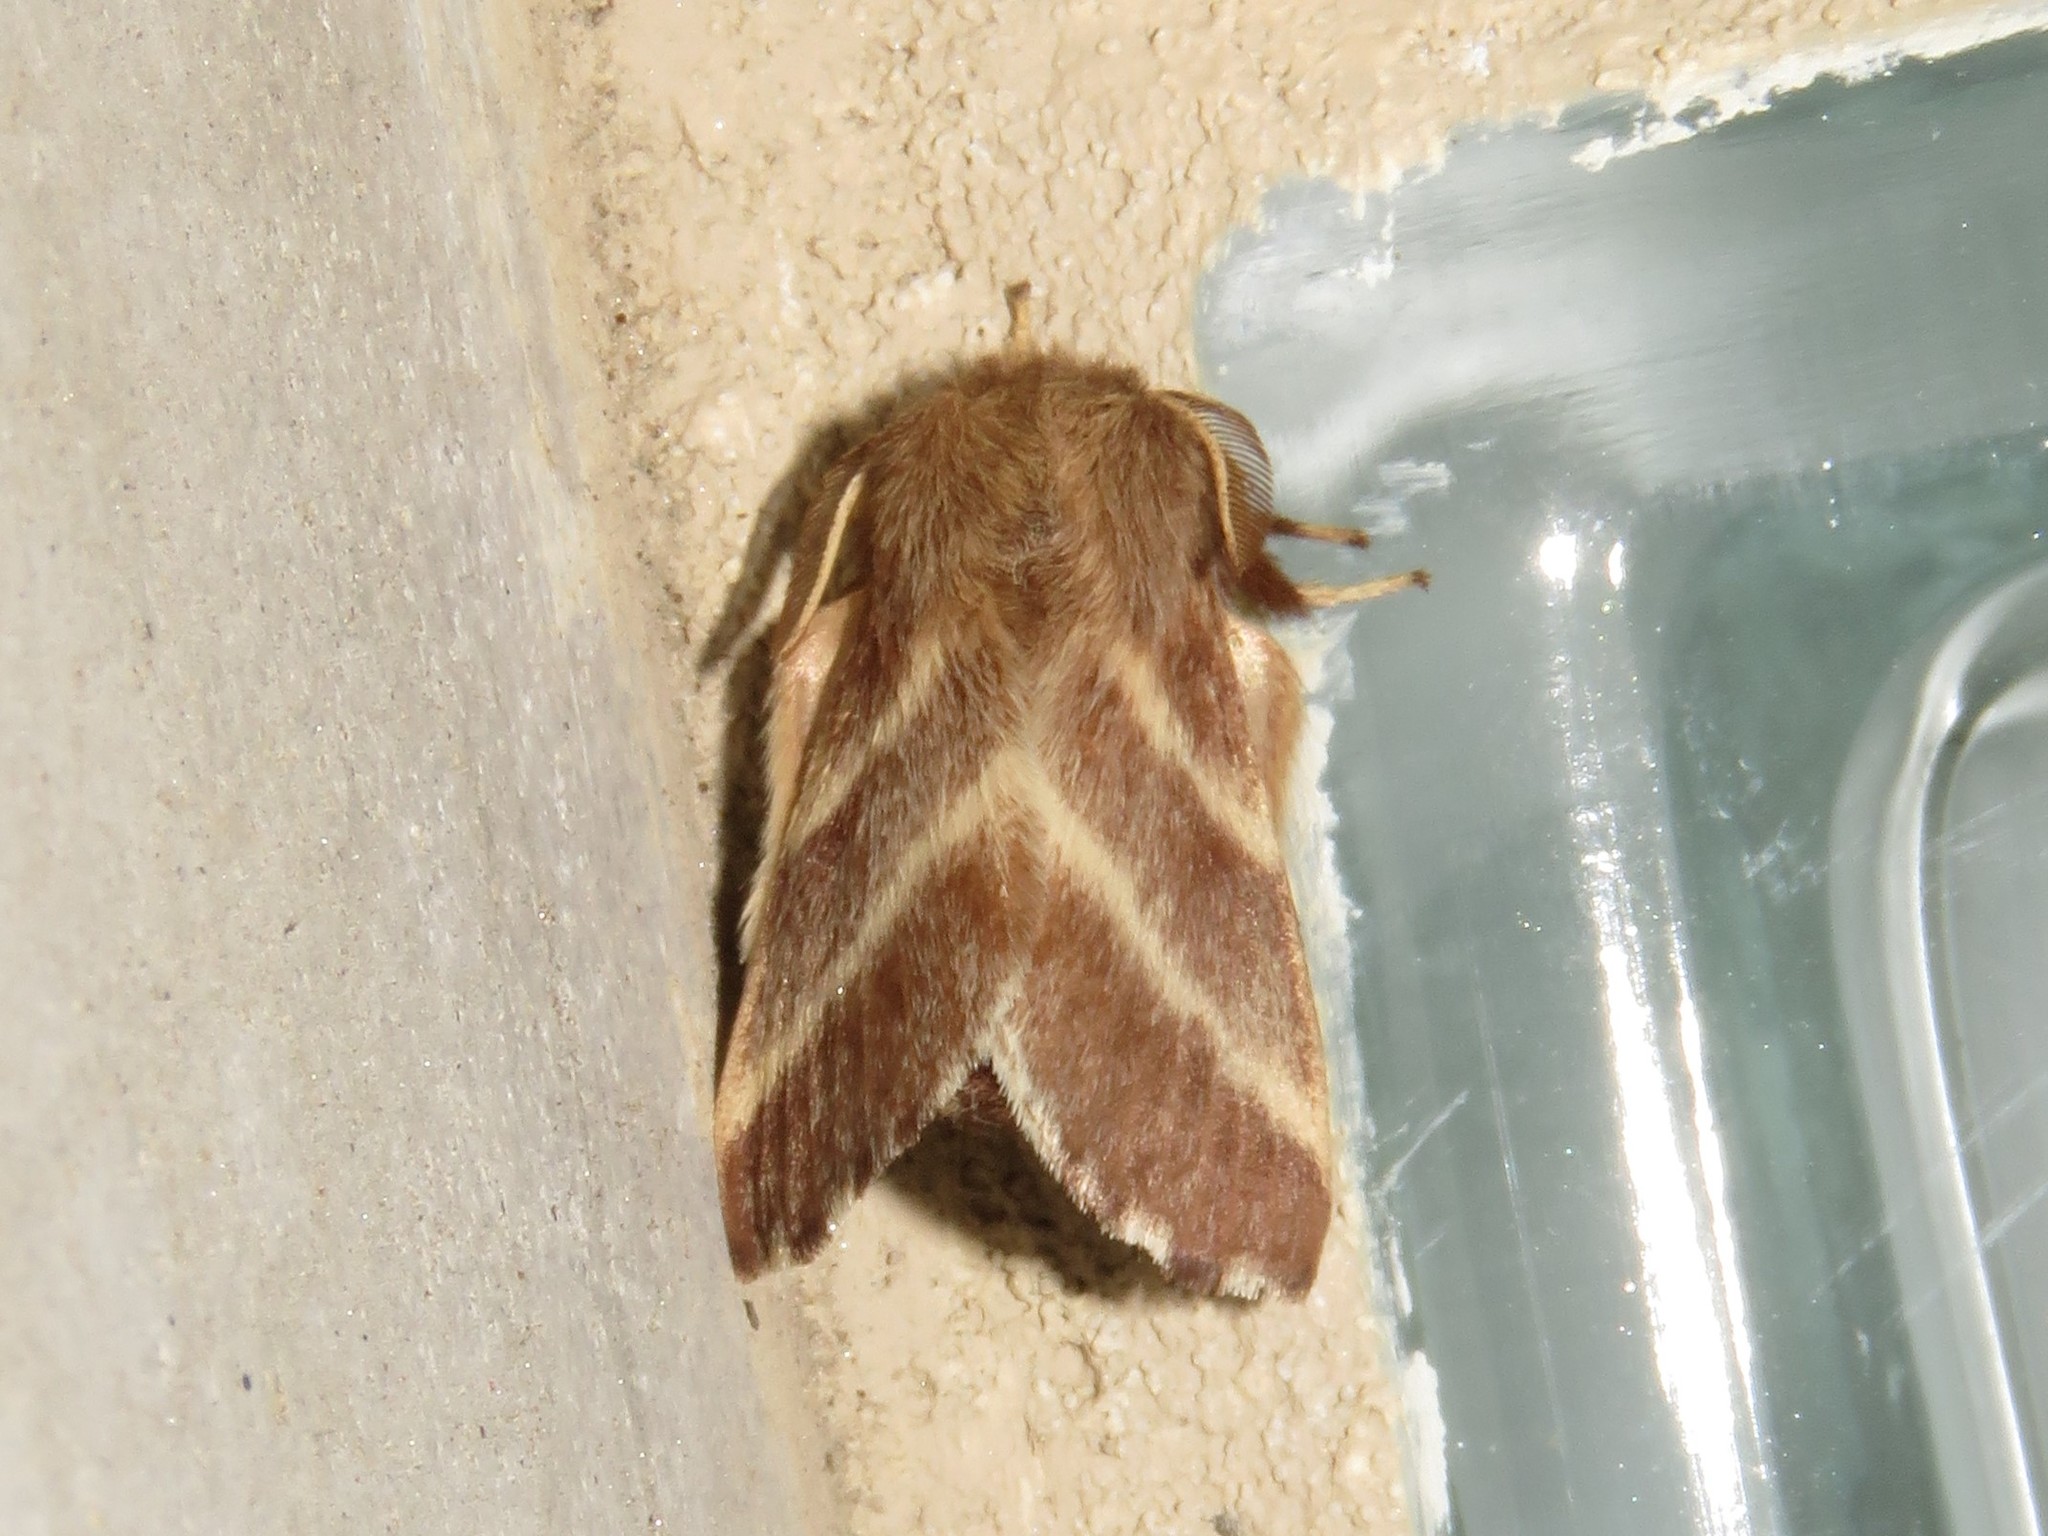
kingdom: Animalia
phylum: Arthropoda
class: Insecta
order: Lepidoptera
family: Lasiocampidae
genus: Malacosoma
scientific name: Malacosoma americana
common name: Eastern tent caterpillar moth
